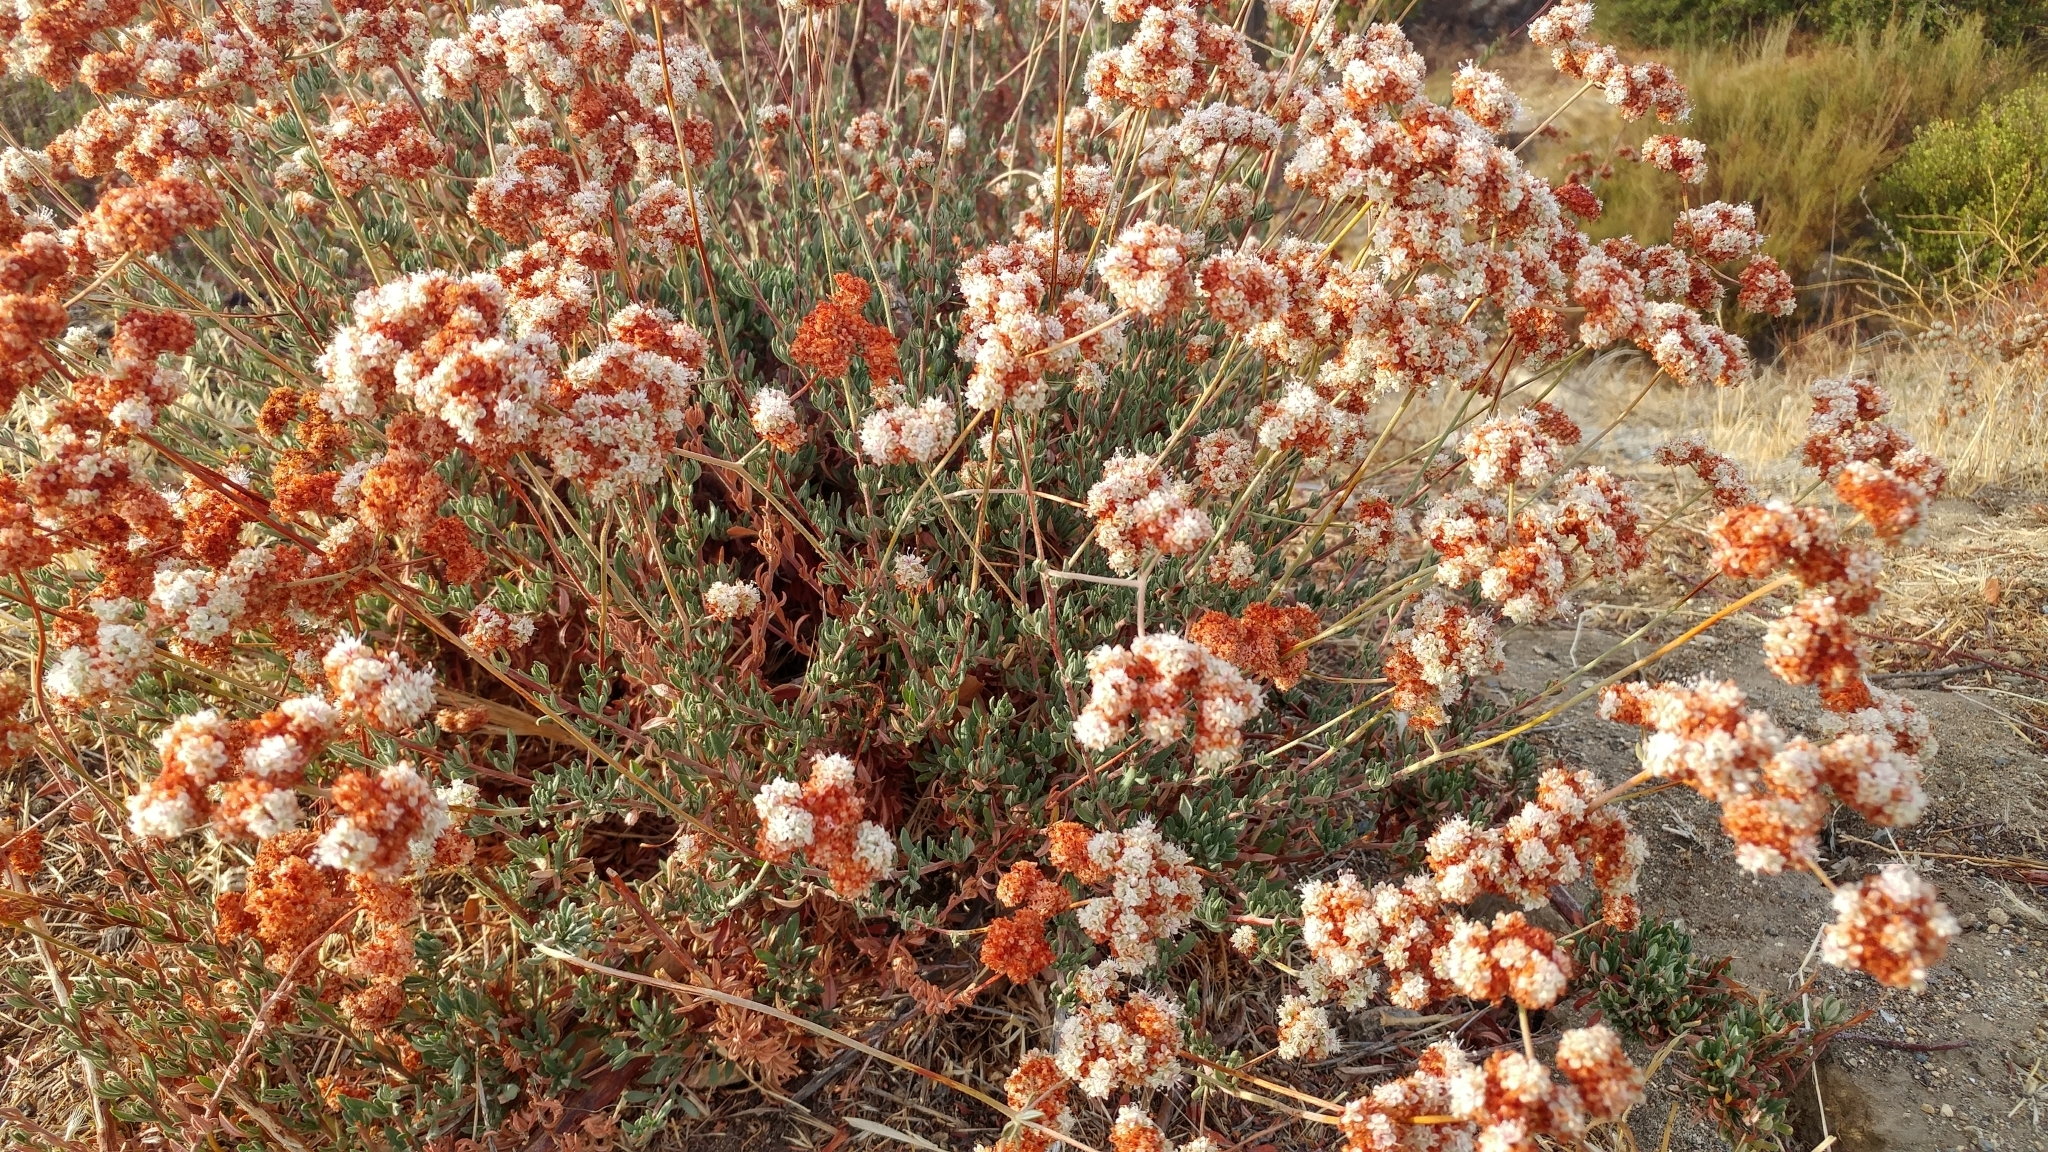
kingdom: Plantae
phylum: Tracheophyta
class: Magnoliopsida
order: Caryophyllales
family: Polygonaceae
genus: Eriogonum
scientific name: Eriogonum fasciculatum
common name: California wild buckwheat
